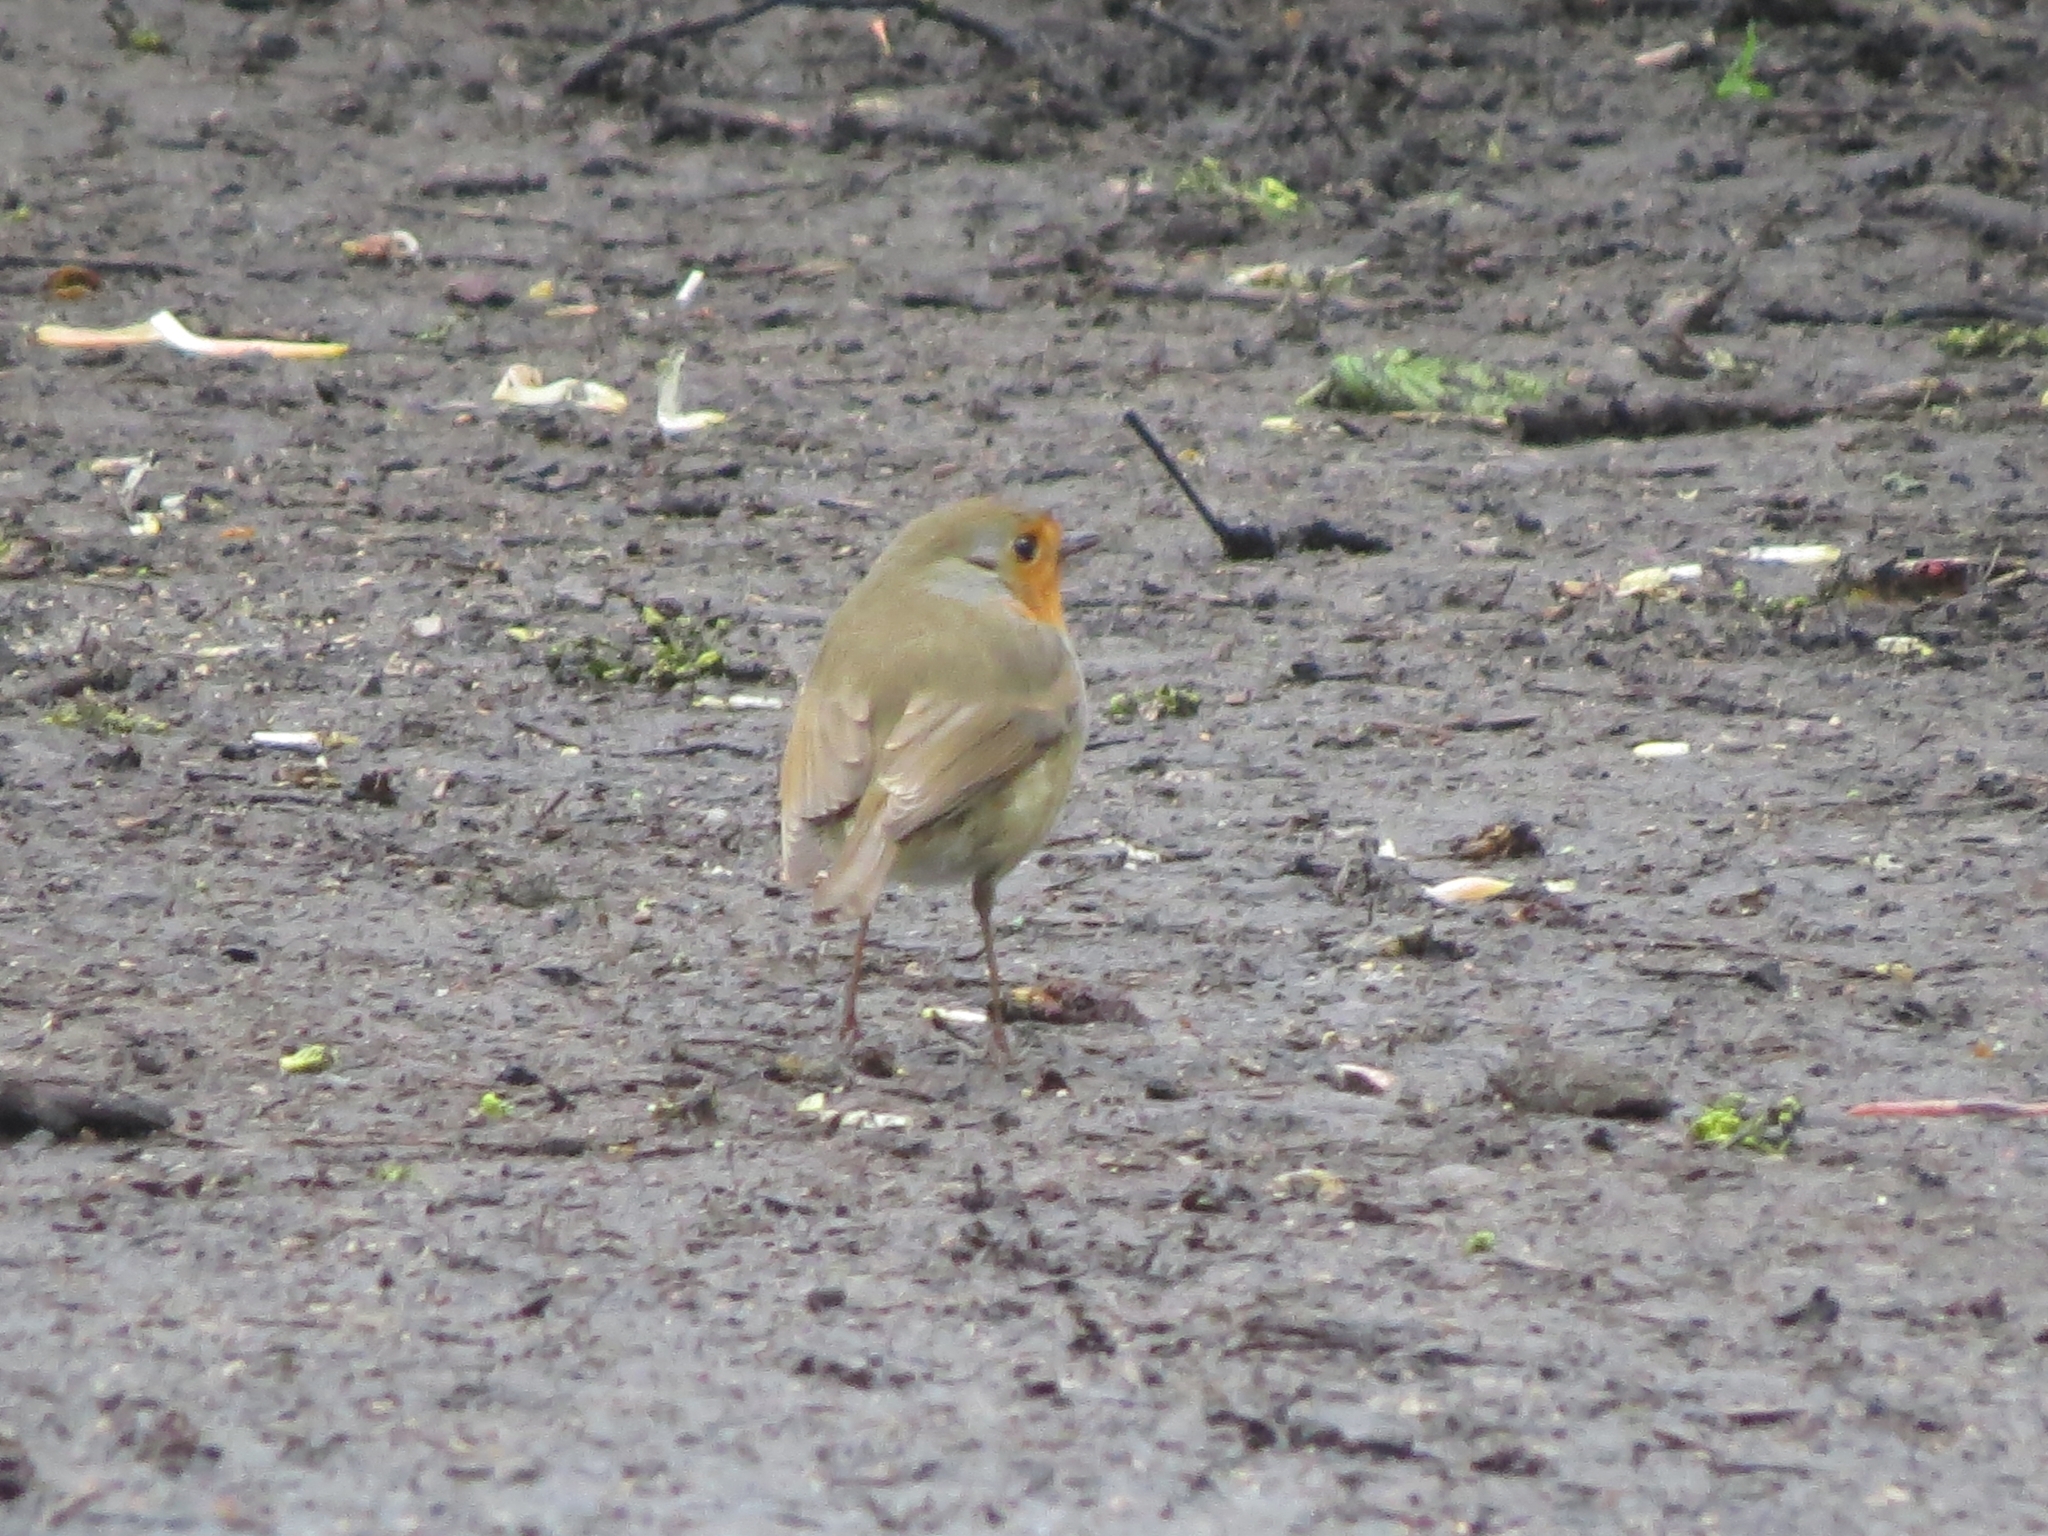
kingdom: Animalia
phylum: Chordata
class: Aves
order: Passeriformes
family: Muscicapidae
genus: Erithacus
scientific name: Erithacus rubecula
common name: European robin
